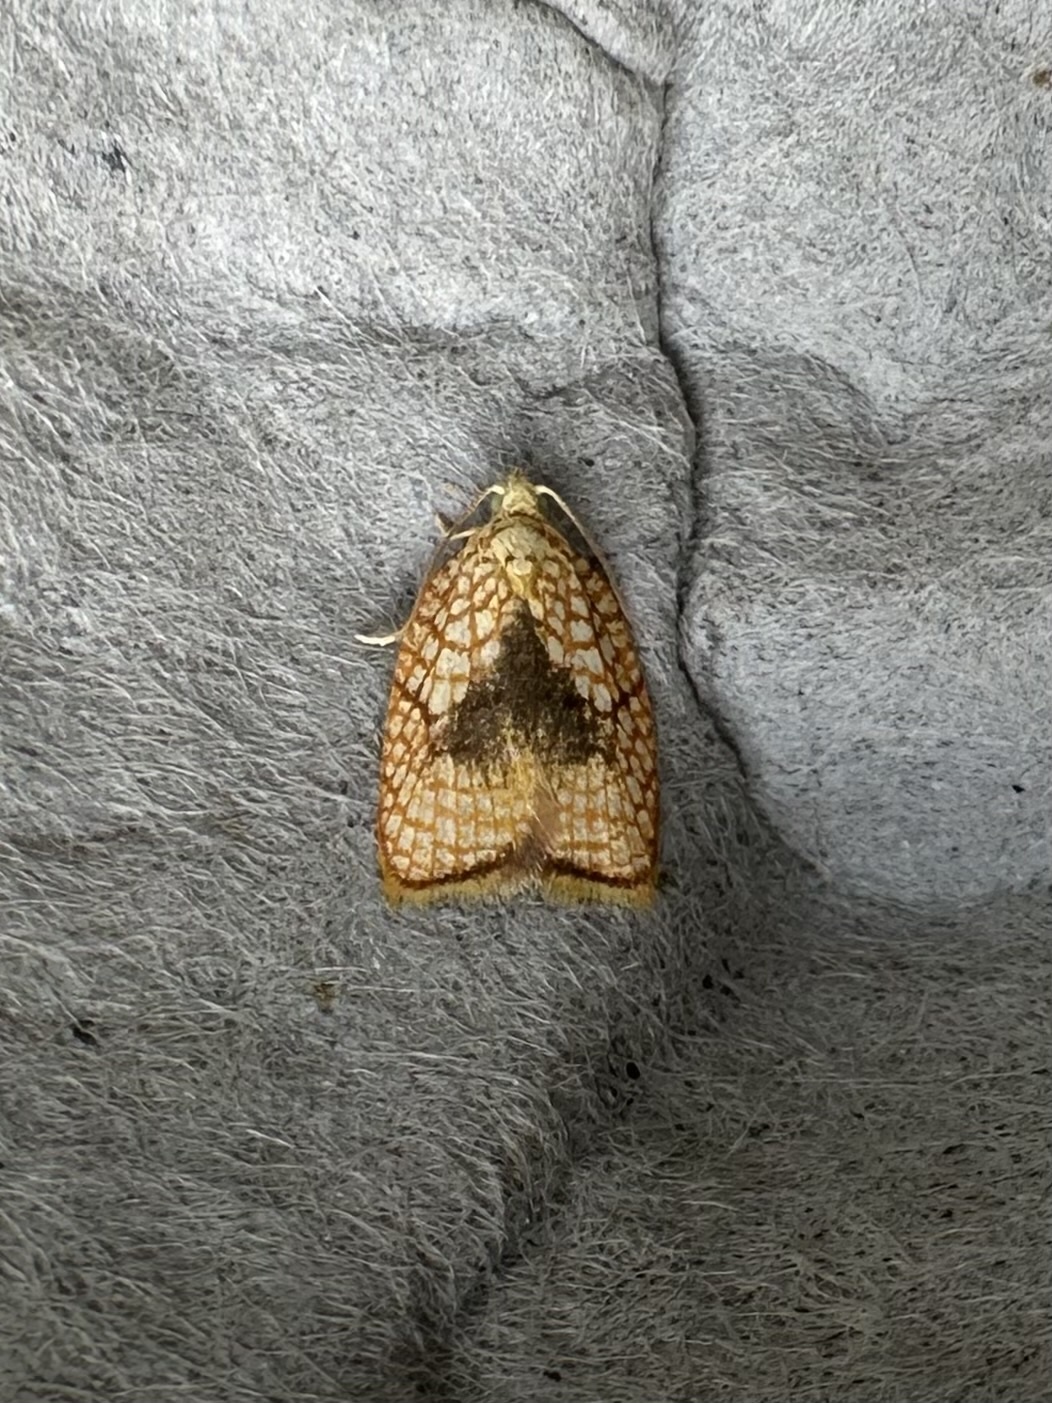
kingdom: Animalia
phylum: Arthropoda
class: Insecta
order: Lepidoptera
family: Tortricidae
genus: Acleris
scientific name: Acleris forsskaleana
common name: Maple button
